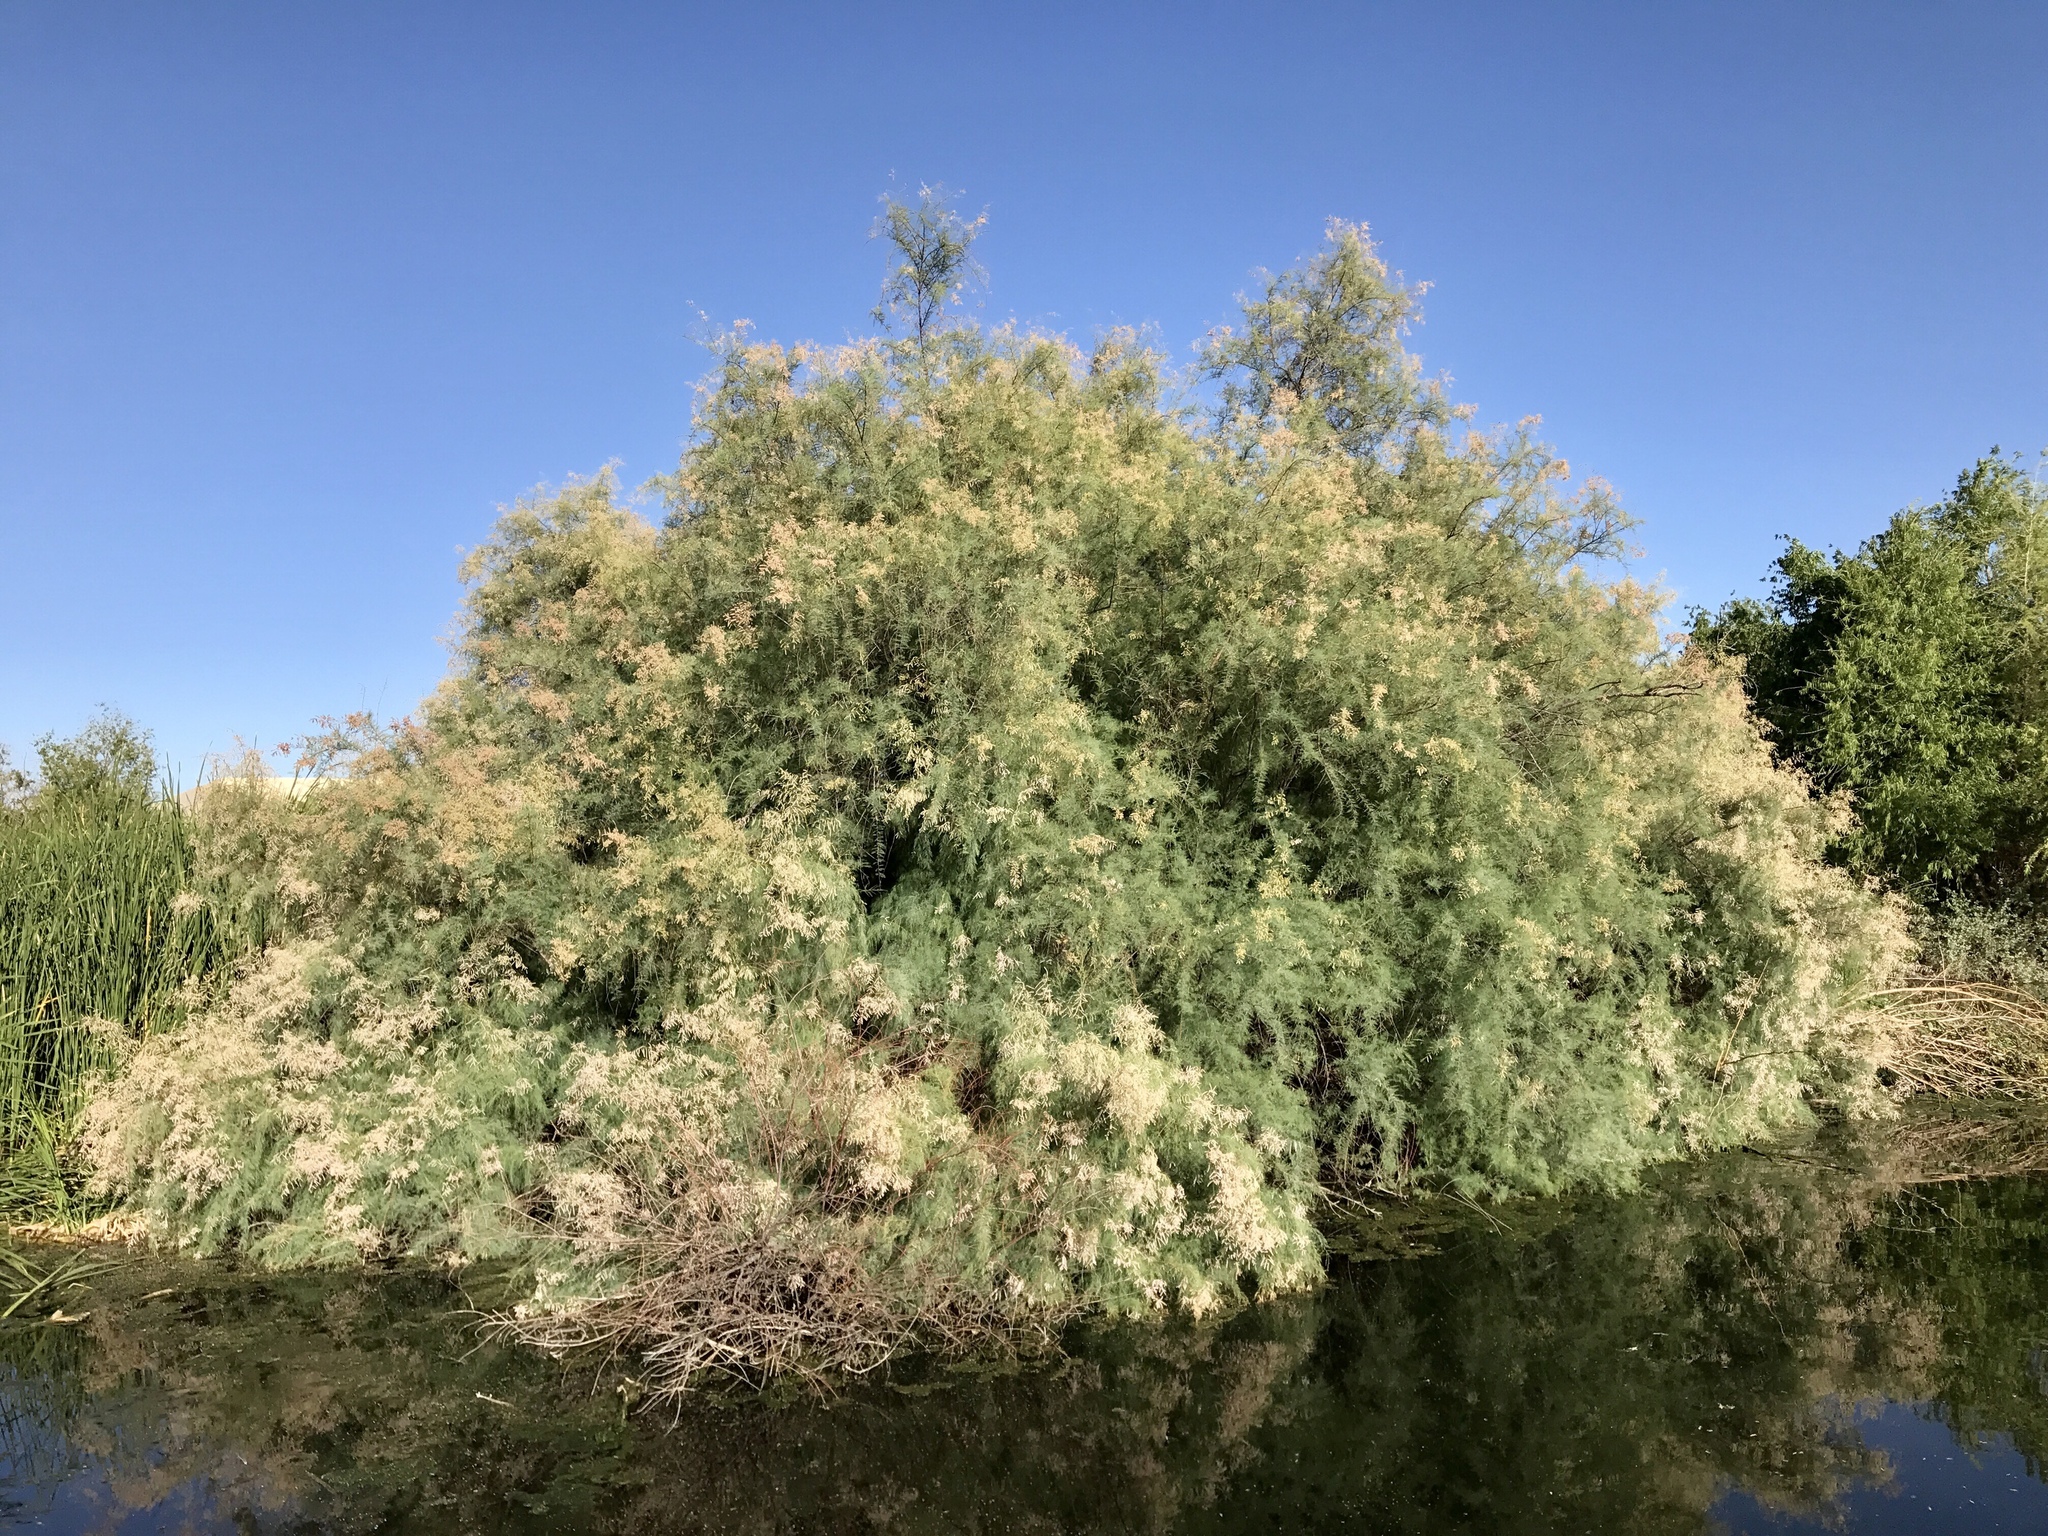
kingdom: Plantae
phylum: Tracheophyta
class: Magnoliopsida
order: Caryophyllales
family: Tamaricaceae
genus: Tamarix
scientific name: Tamarix
